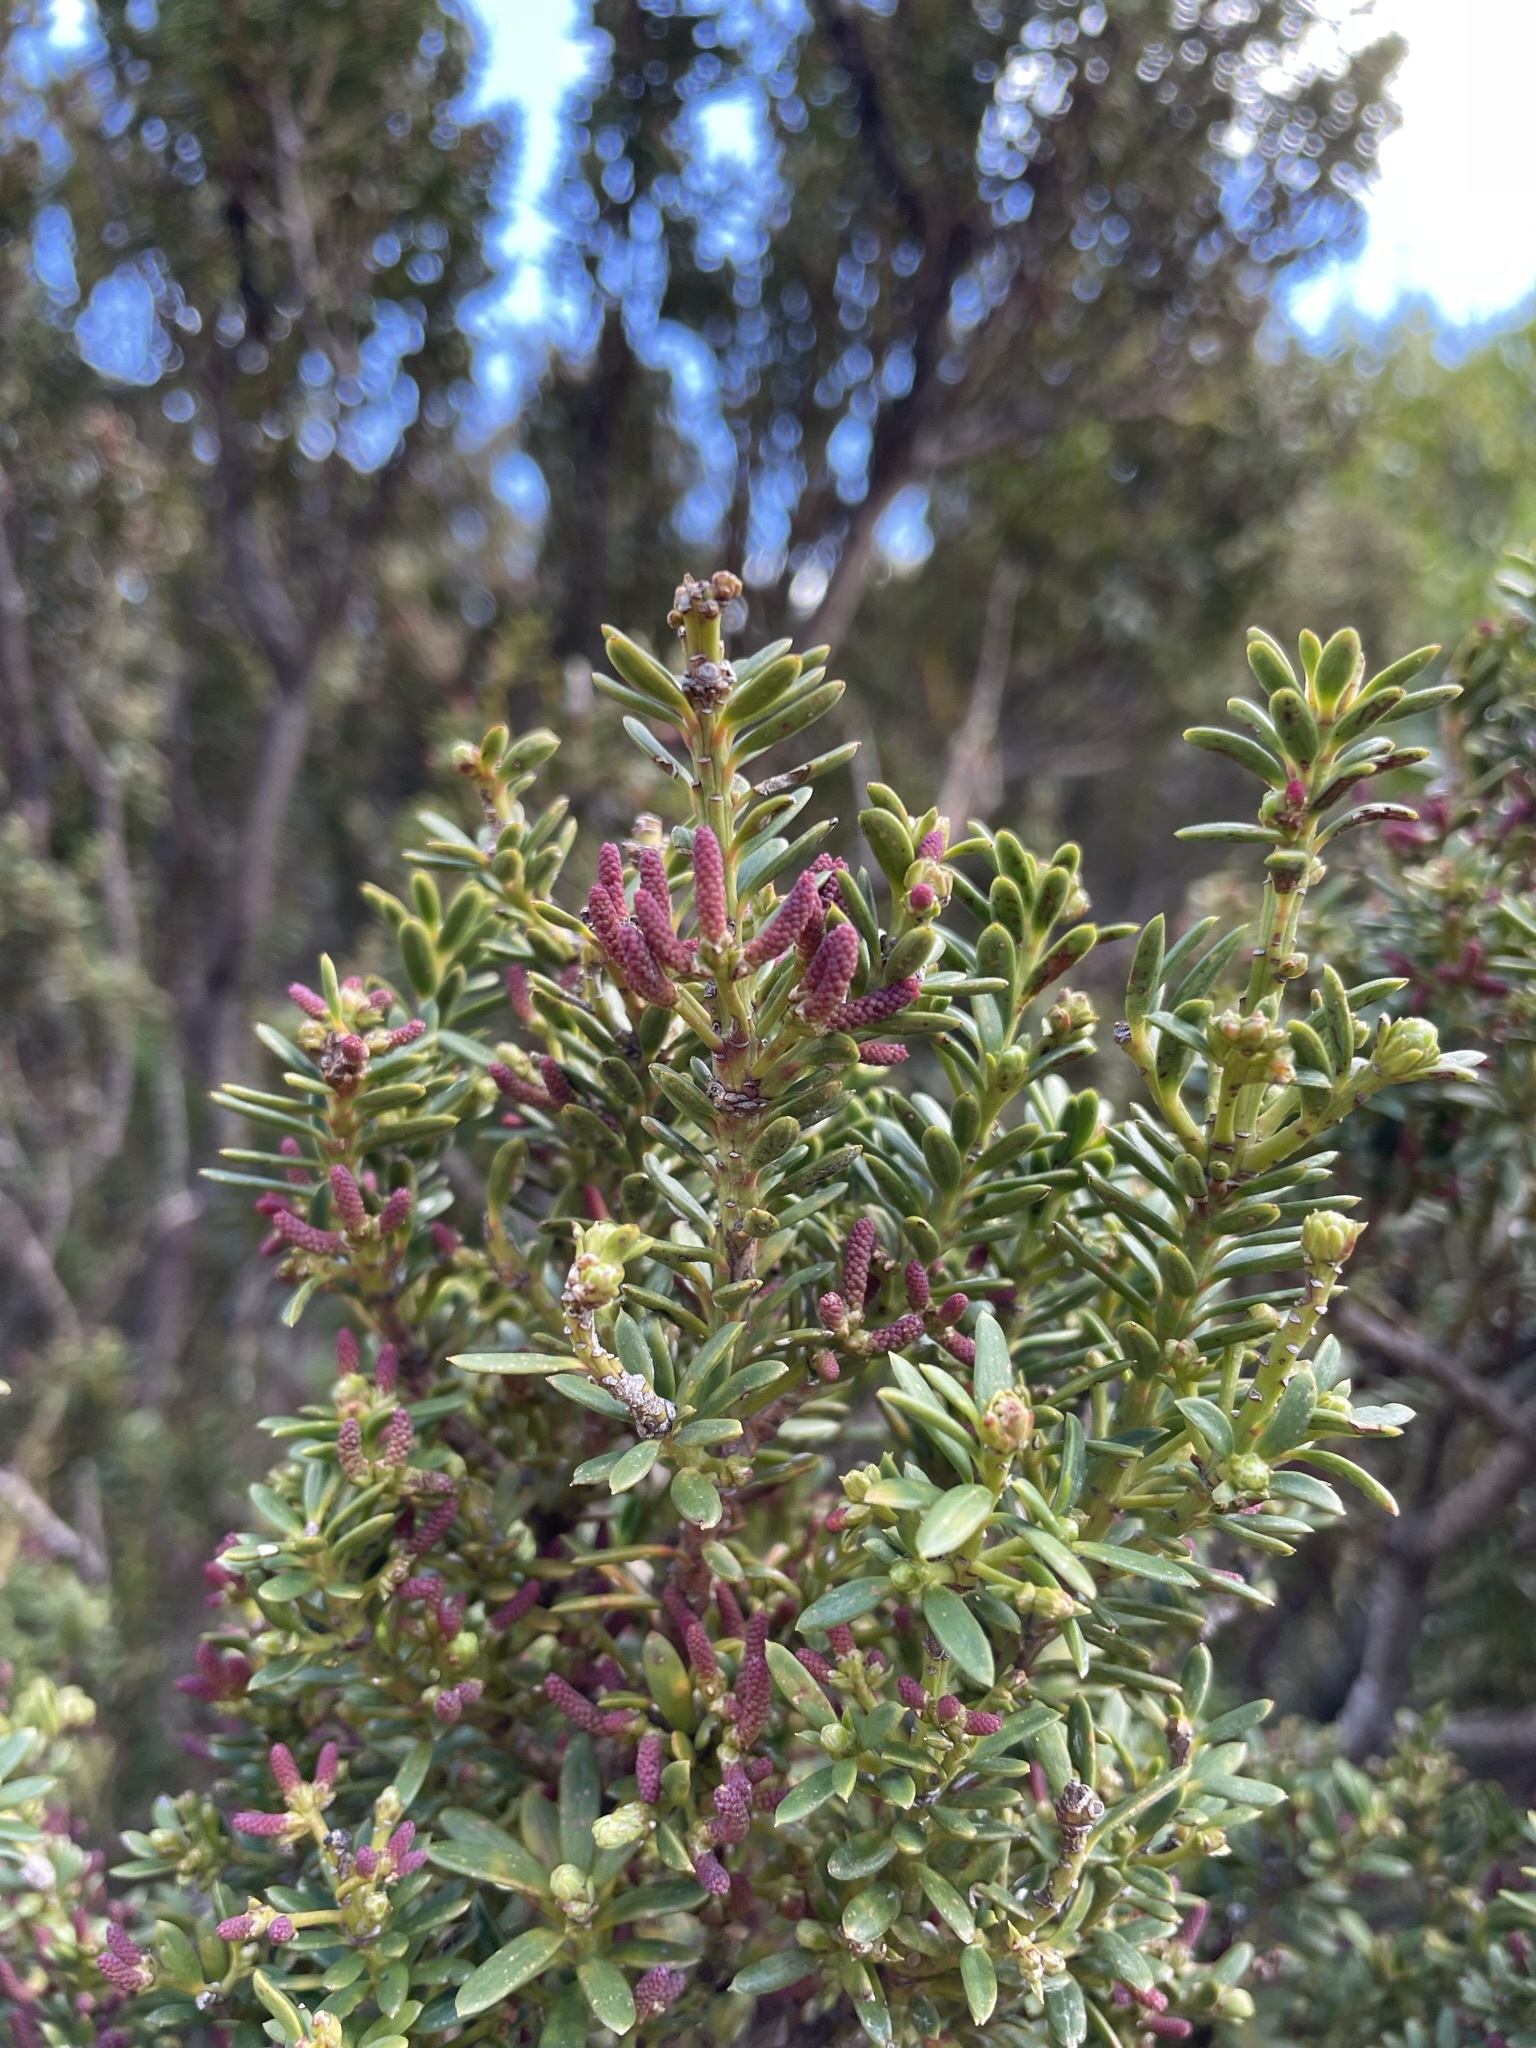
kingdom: Plantae
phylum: Tracheophyta
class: Pinopsida
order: Pinales
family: Podocarpaceae
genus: Podocarpus
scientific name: Podocarpus laetus
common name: Hall's totara
